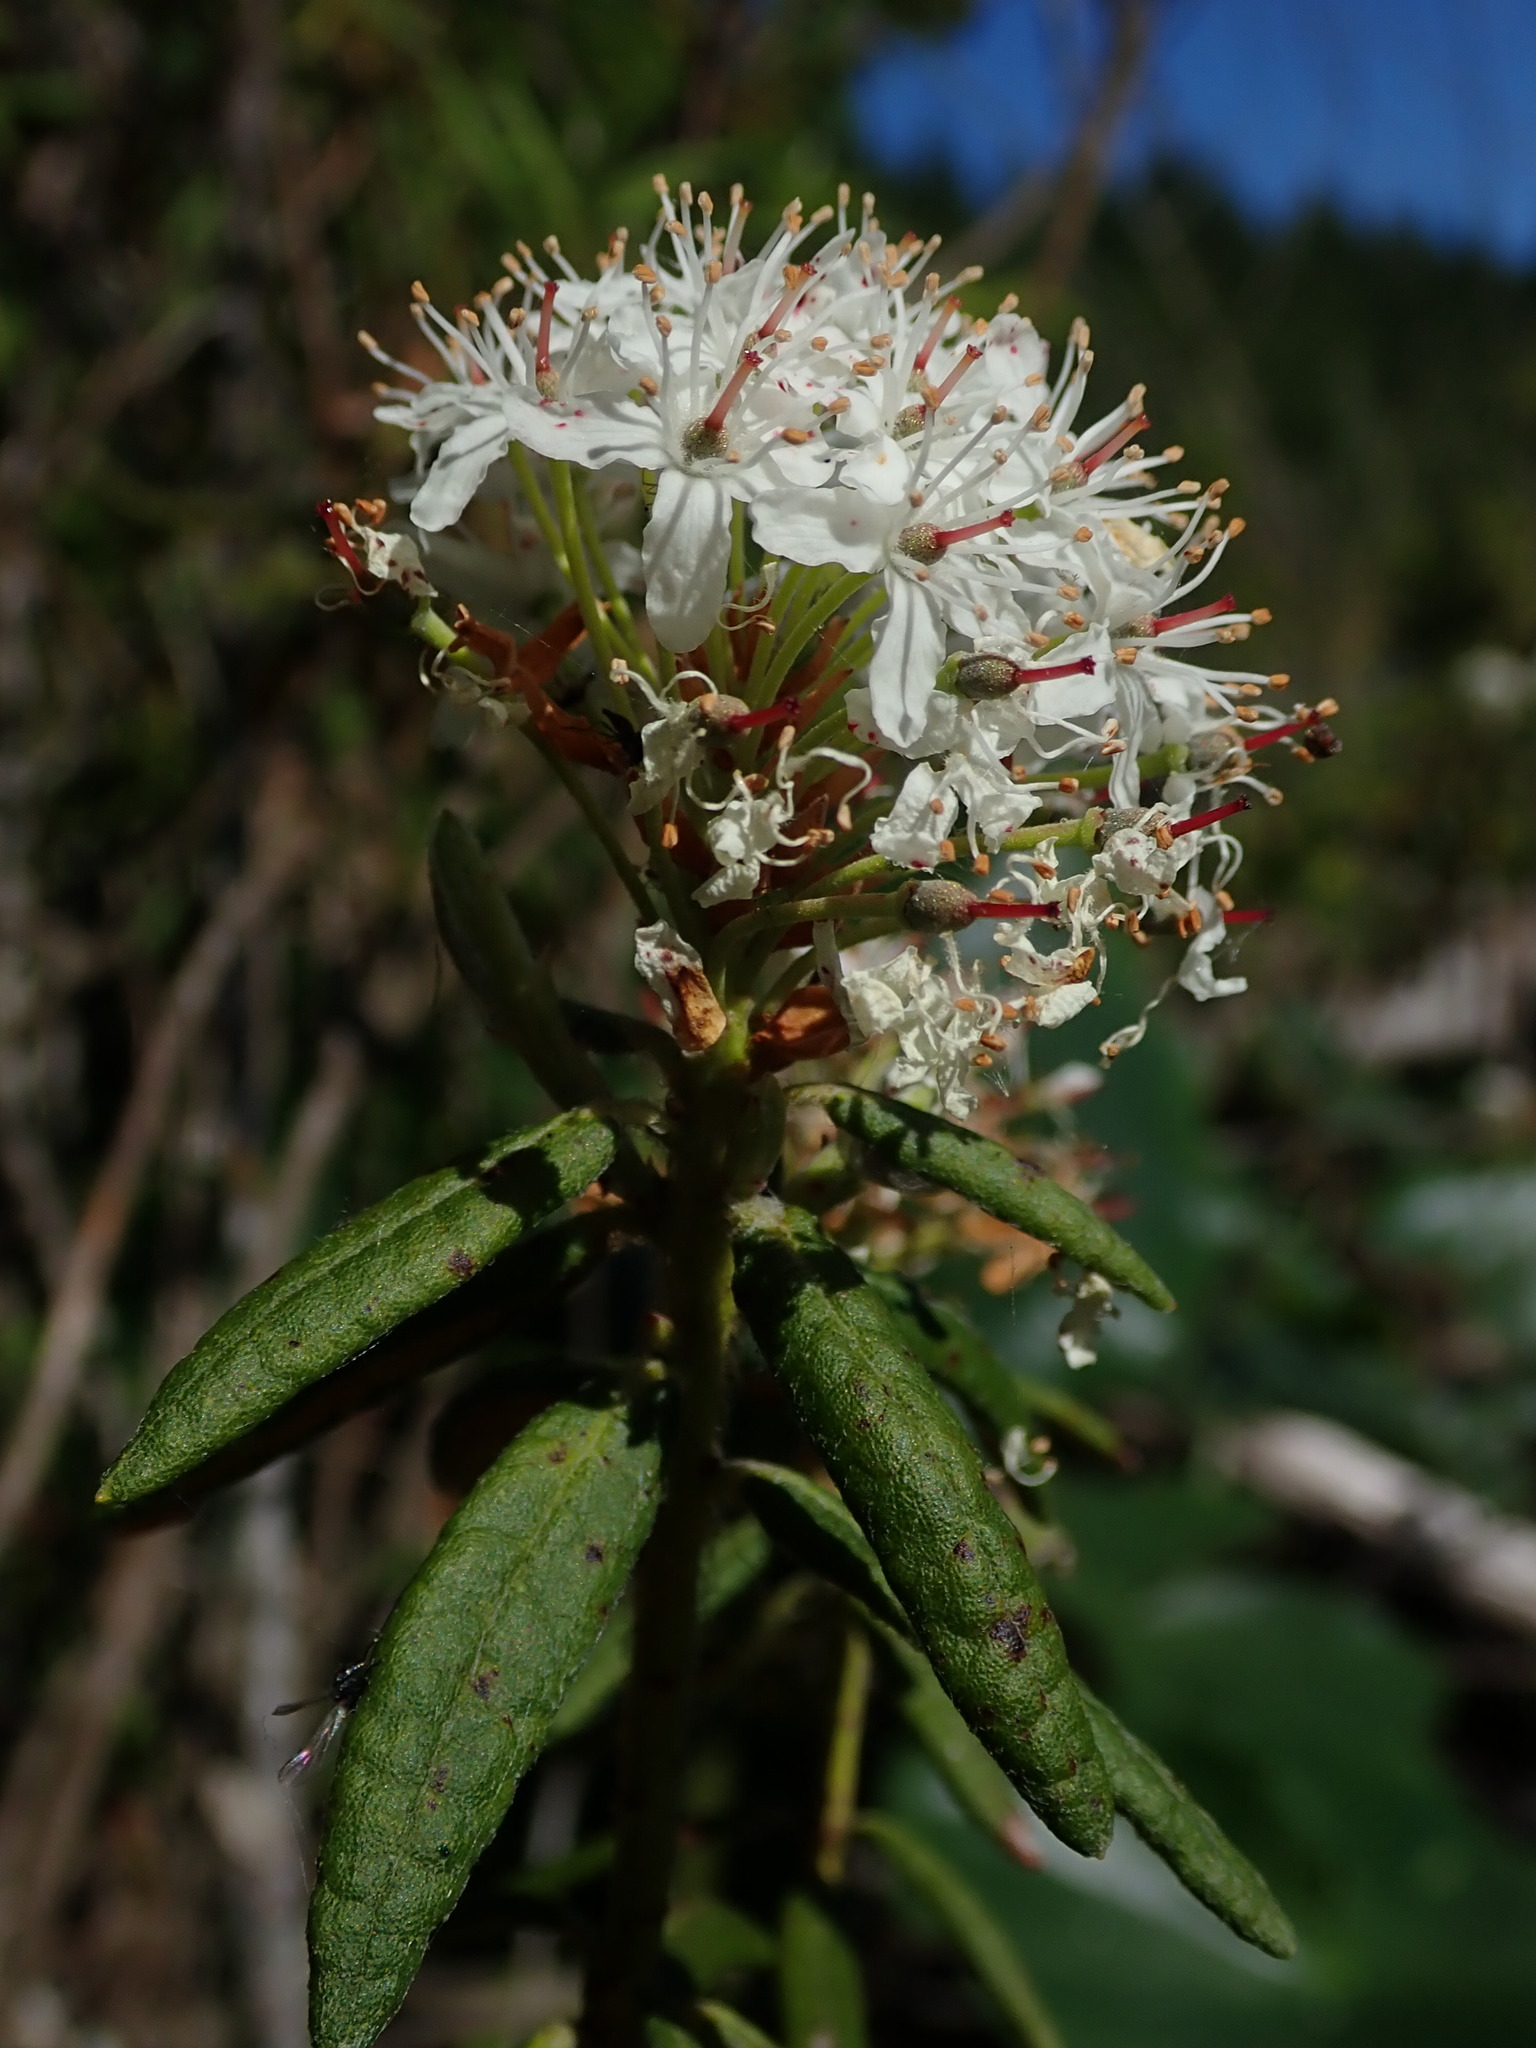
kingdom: Plantae
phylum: Tracheophyta
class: Magnoliopsida
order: Ericales
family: Ericaceae
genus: Rhododendron
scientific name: Rhododendron groenlandicum
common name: Bog labrador tea
